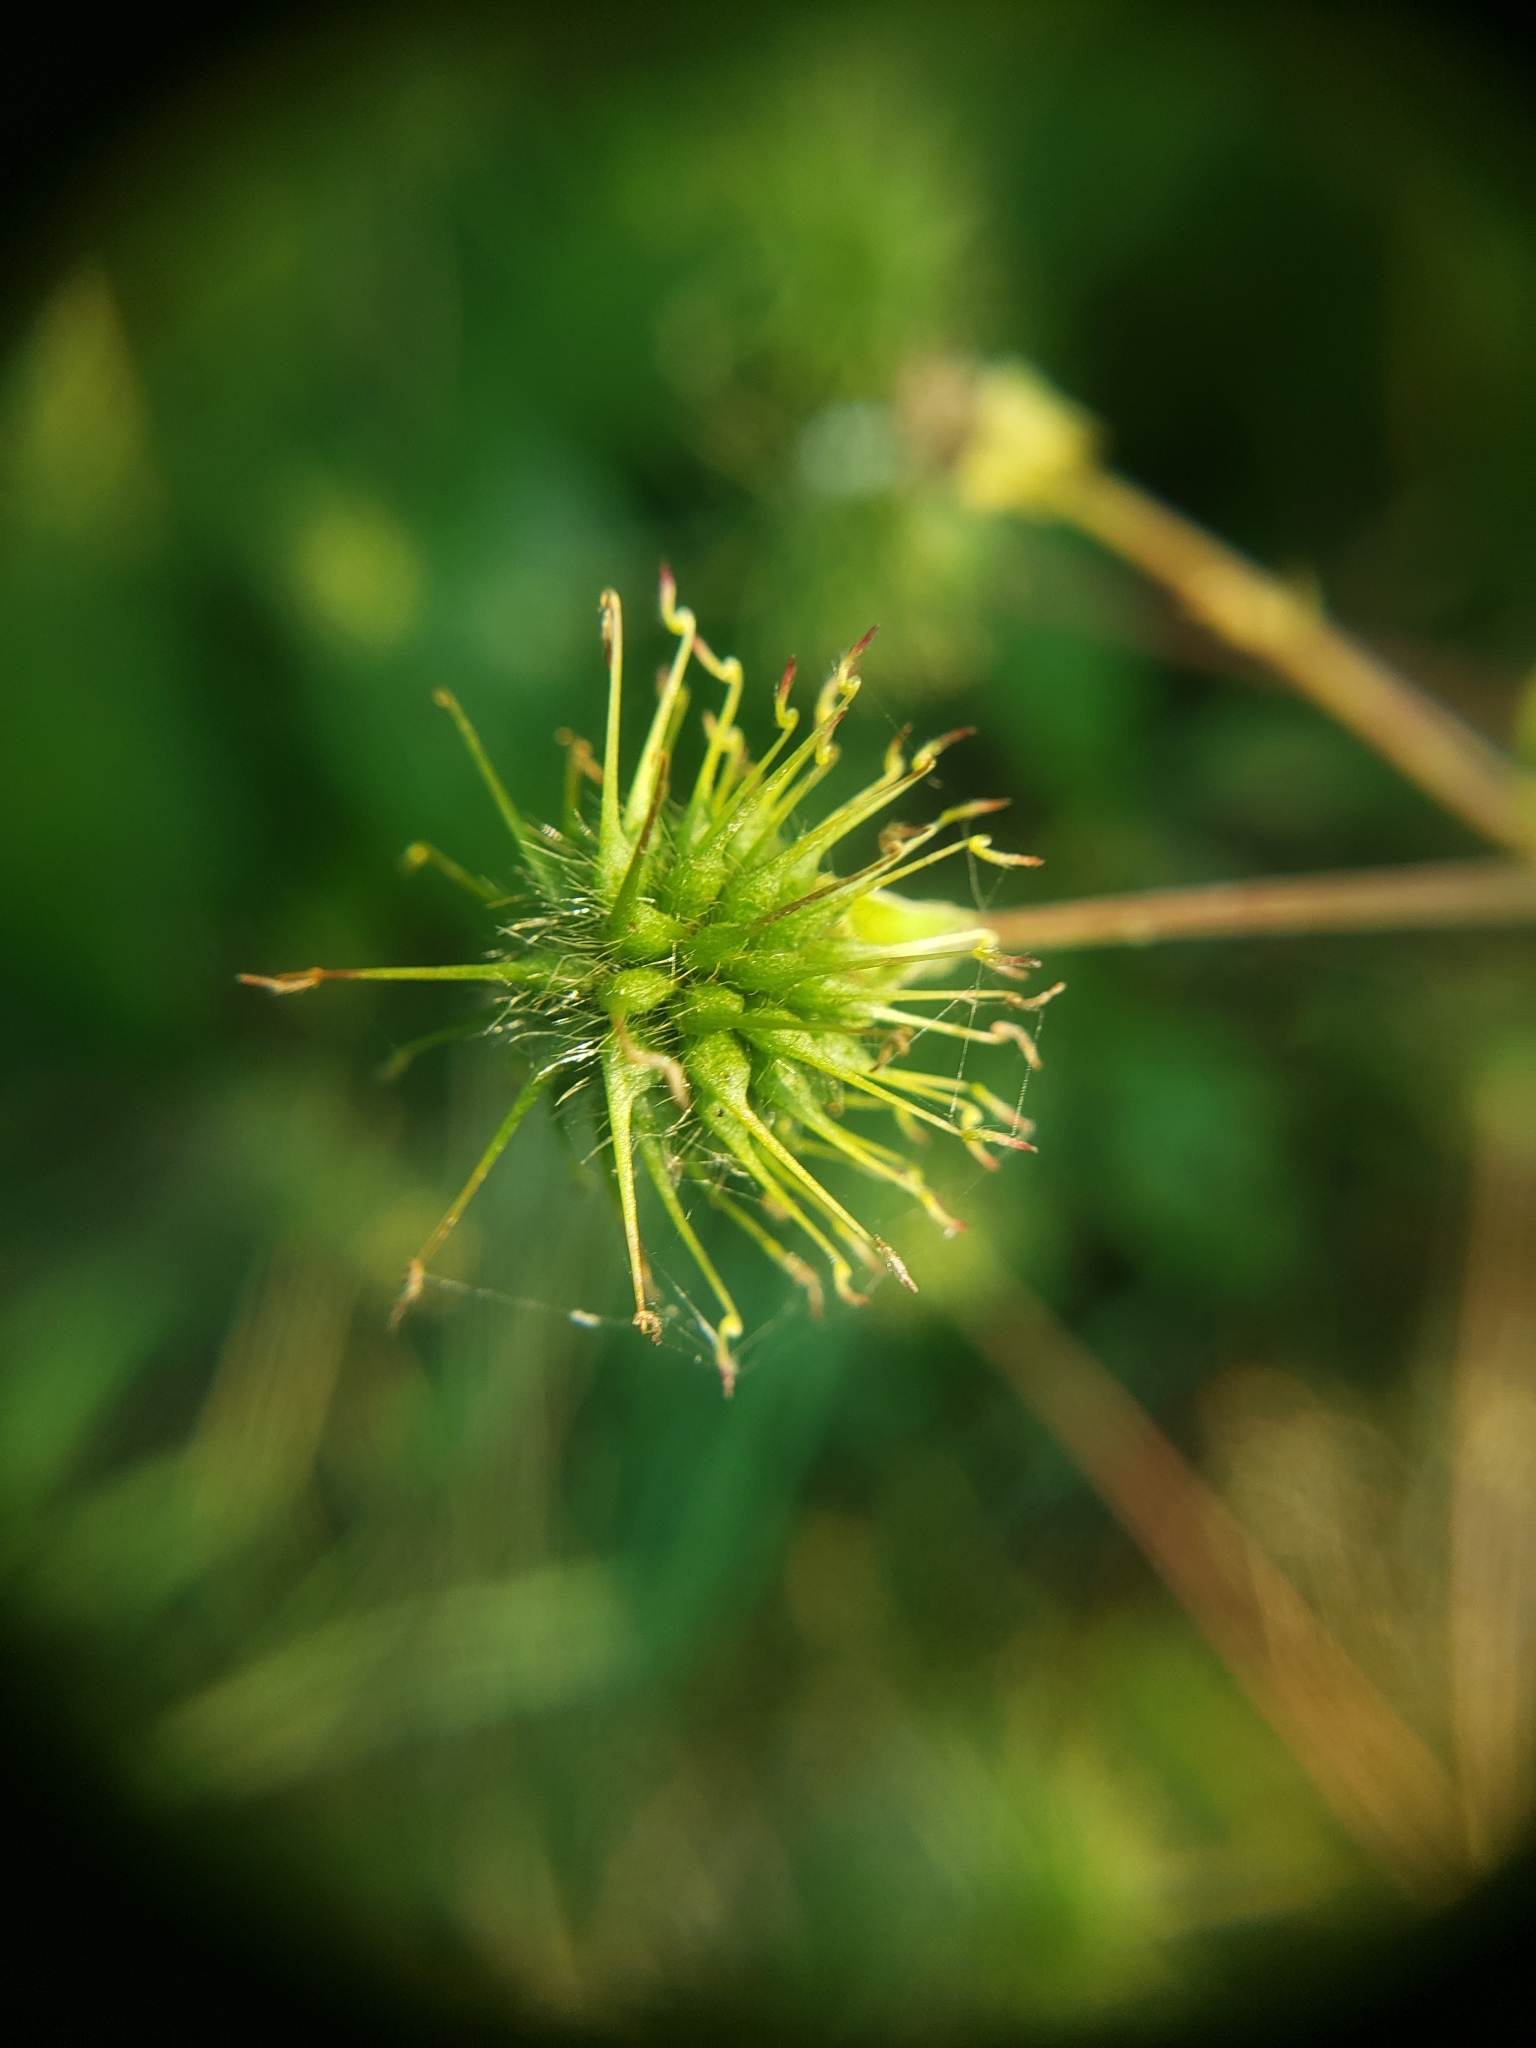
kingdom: Plantae
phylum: Tracheophyta
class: Magnoliopsida
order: Rosales
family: Rosaceae
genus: Geum
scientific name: Geum canadense
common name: White avens
